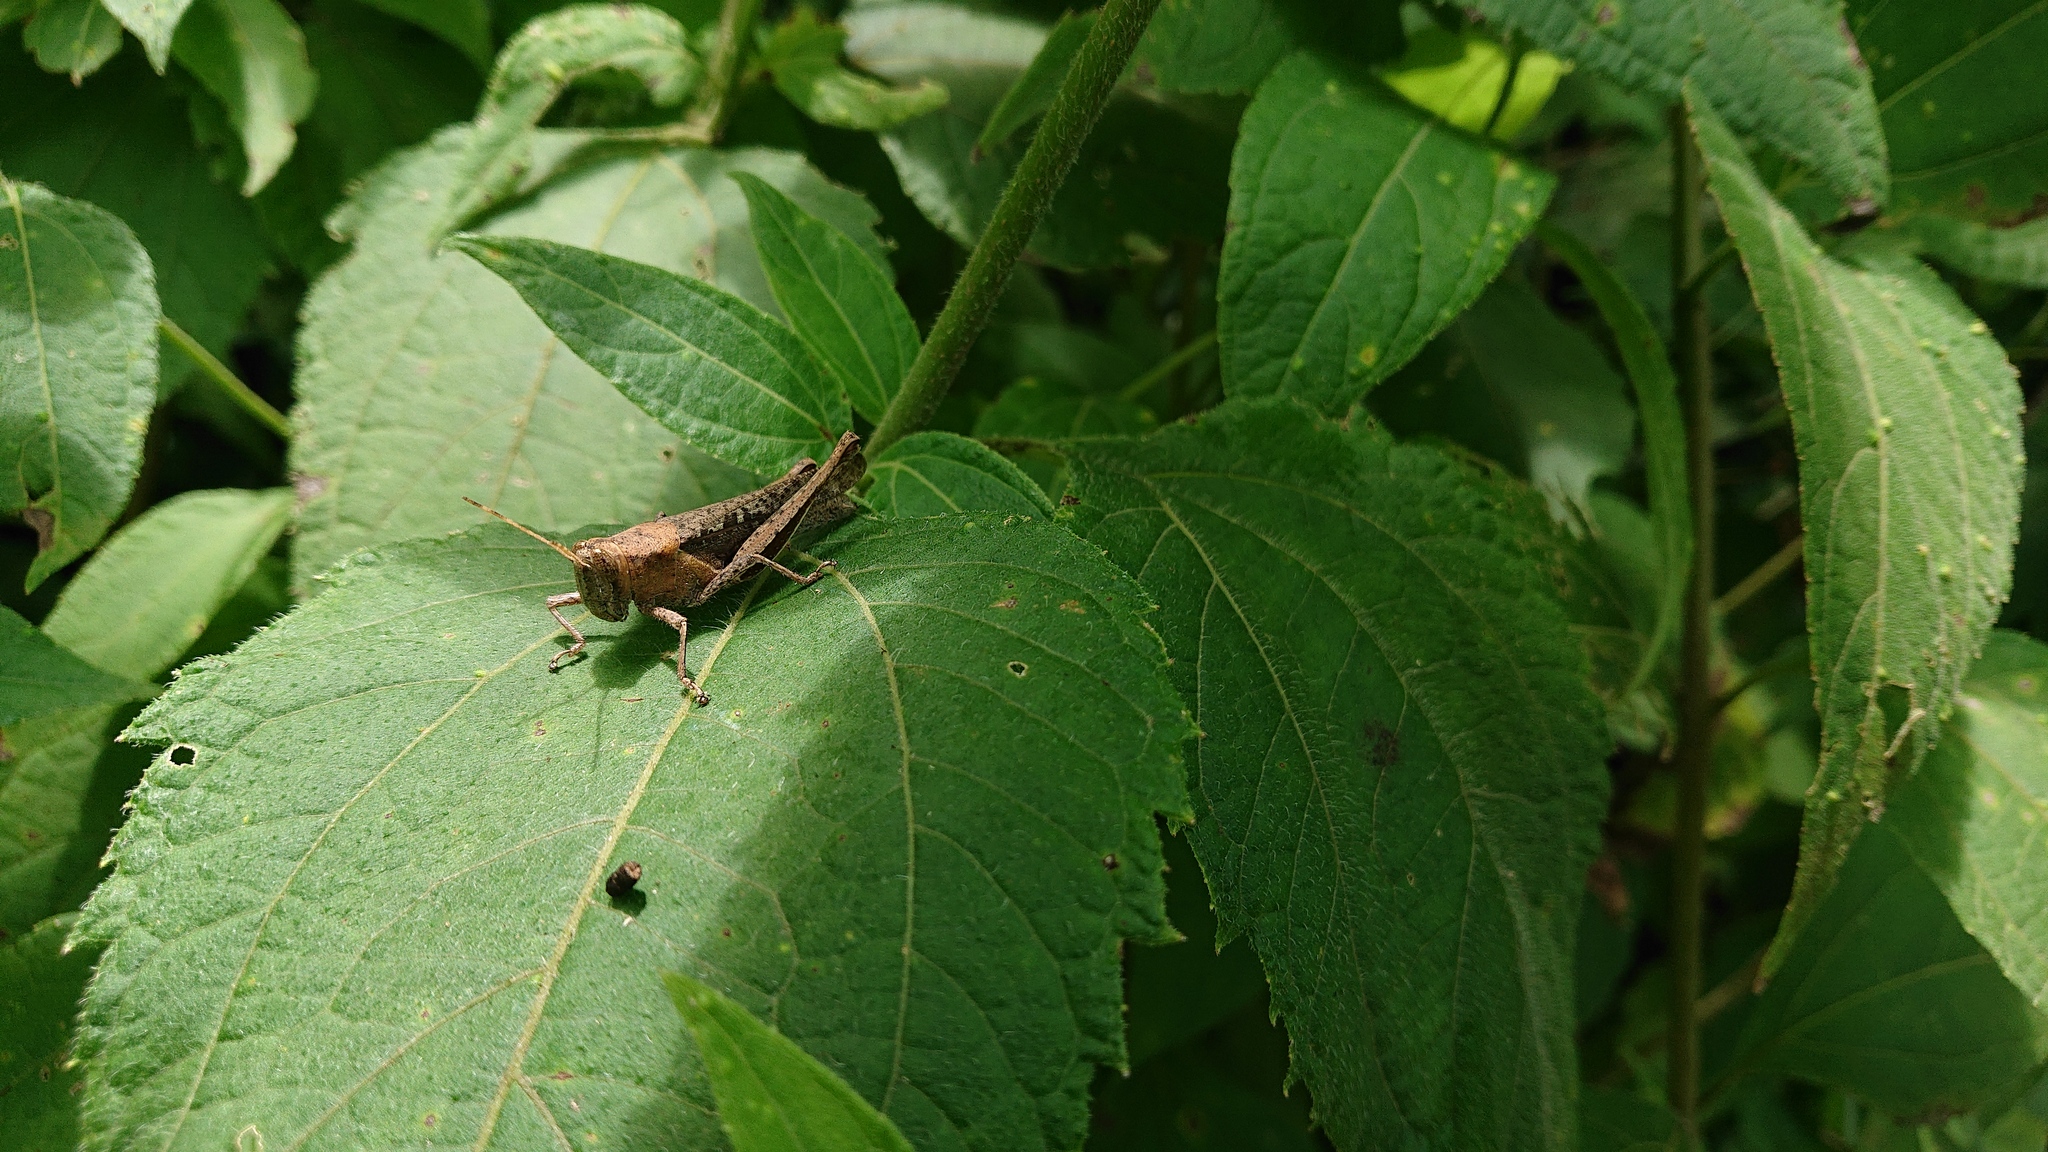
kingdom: Animalia
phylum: Arthropoda
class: Insecta
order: Orthoptera
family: Acrididae
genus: Abracris
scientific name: Abracris flavolineata
